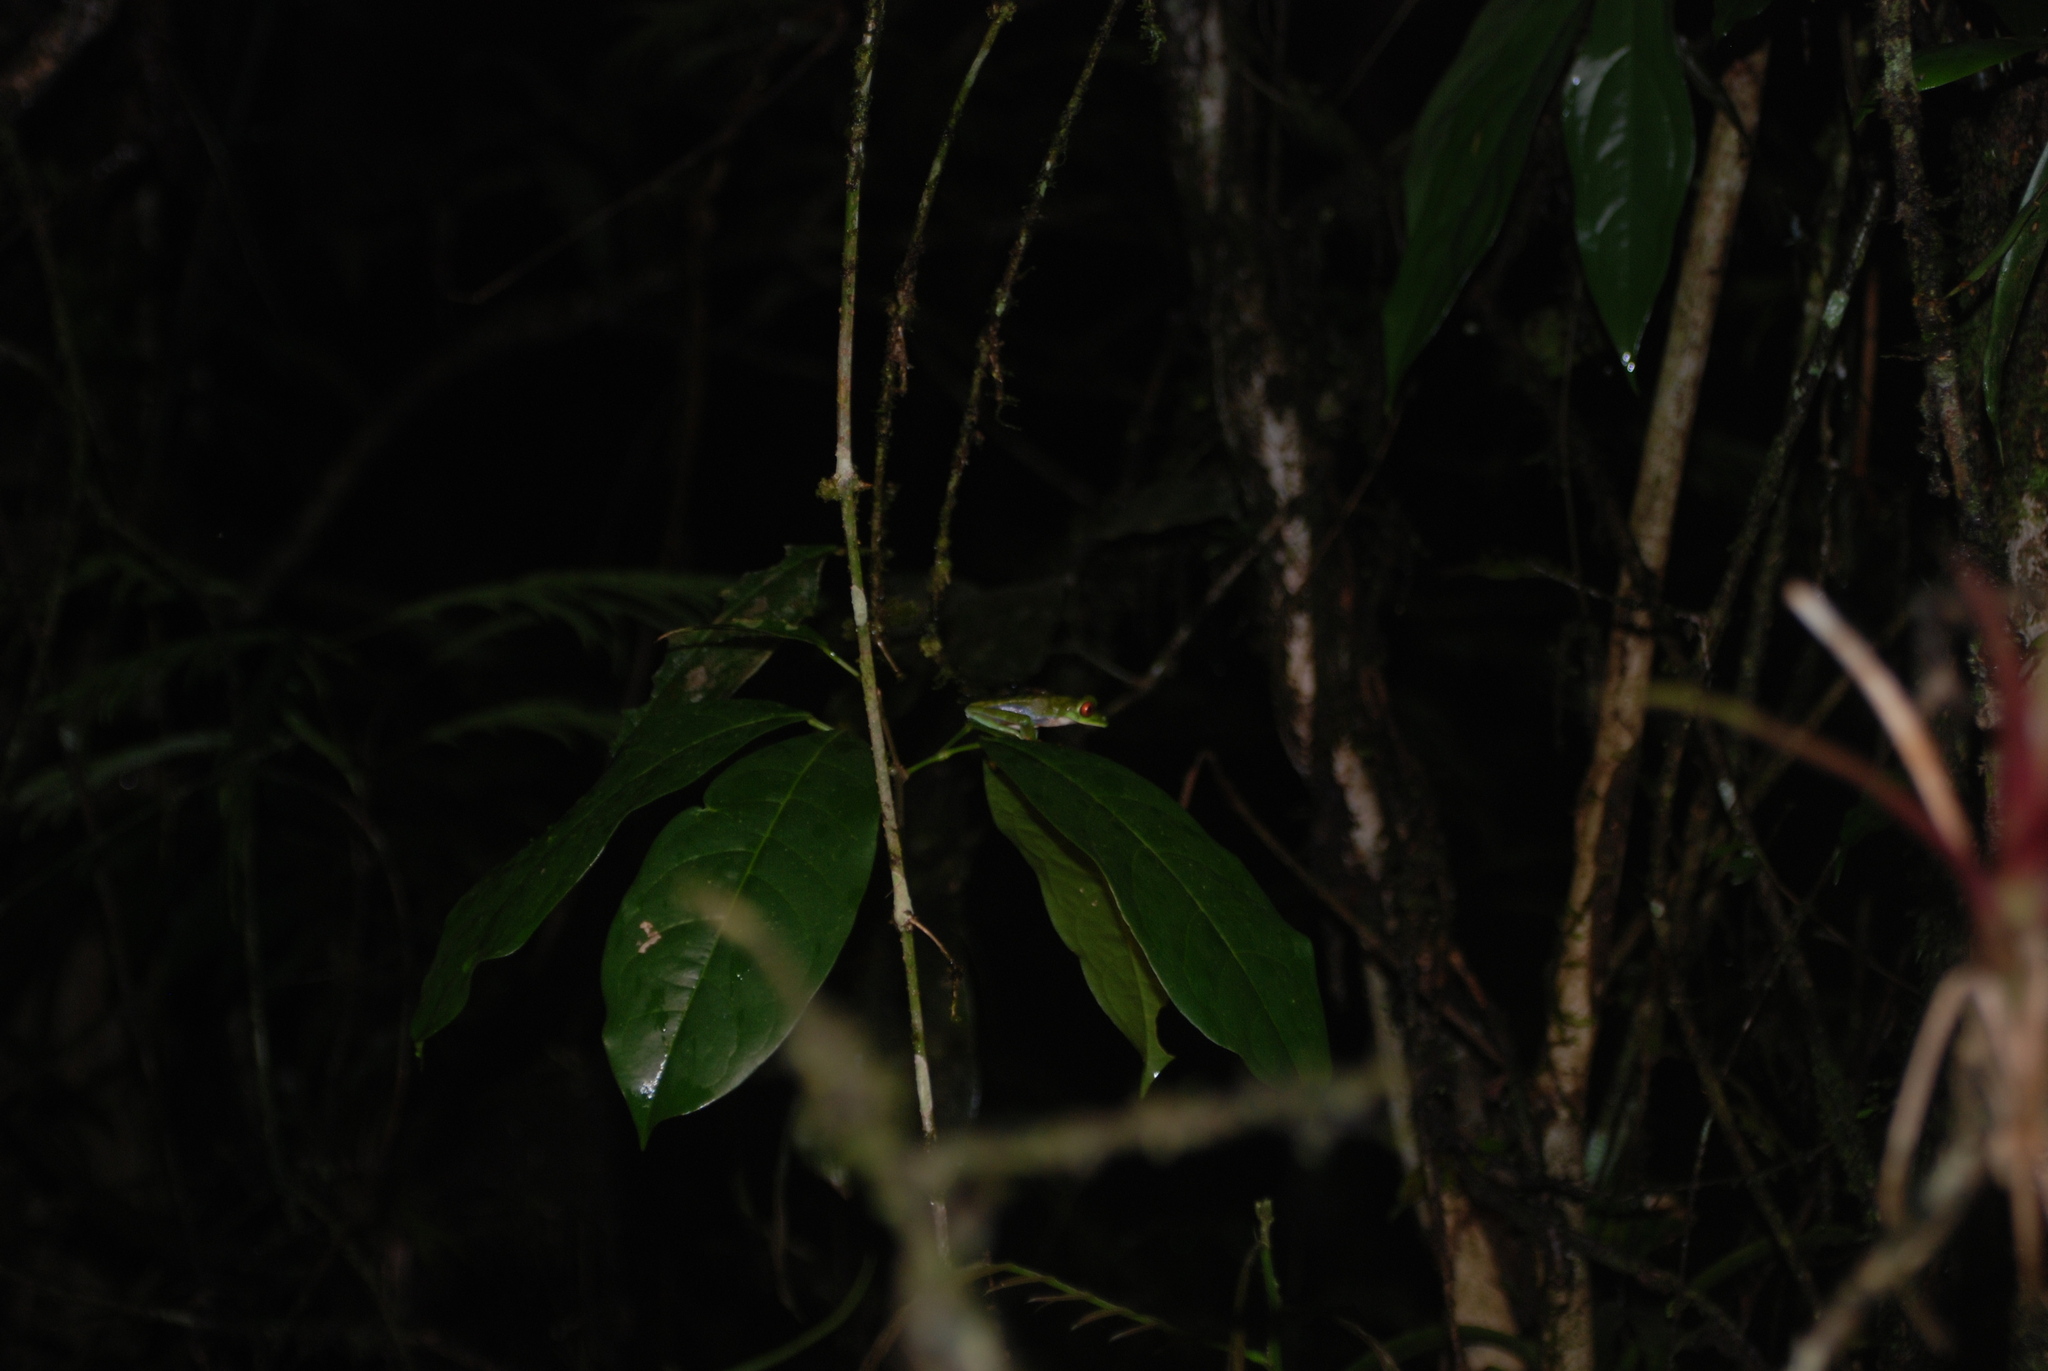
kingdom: Animalia
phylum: Chordata
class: Amphibia
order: Anura
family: Phyllomedusidae
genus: Agalychnis
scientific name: Agalychnis saltator
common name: Misfit leaf frog
